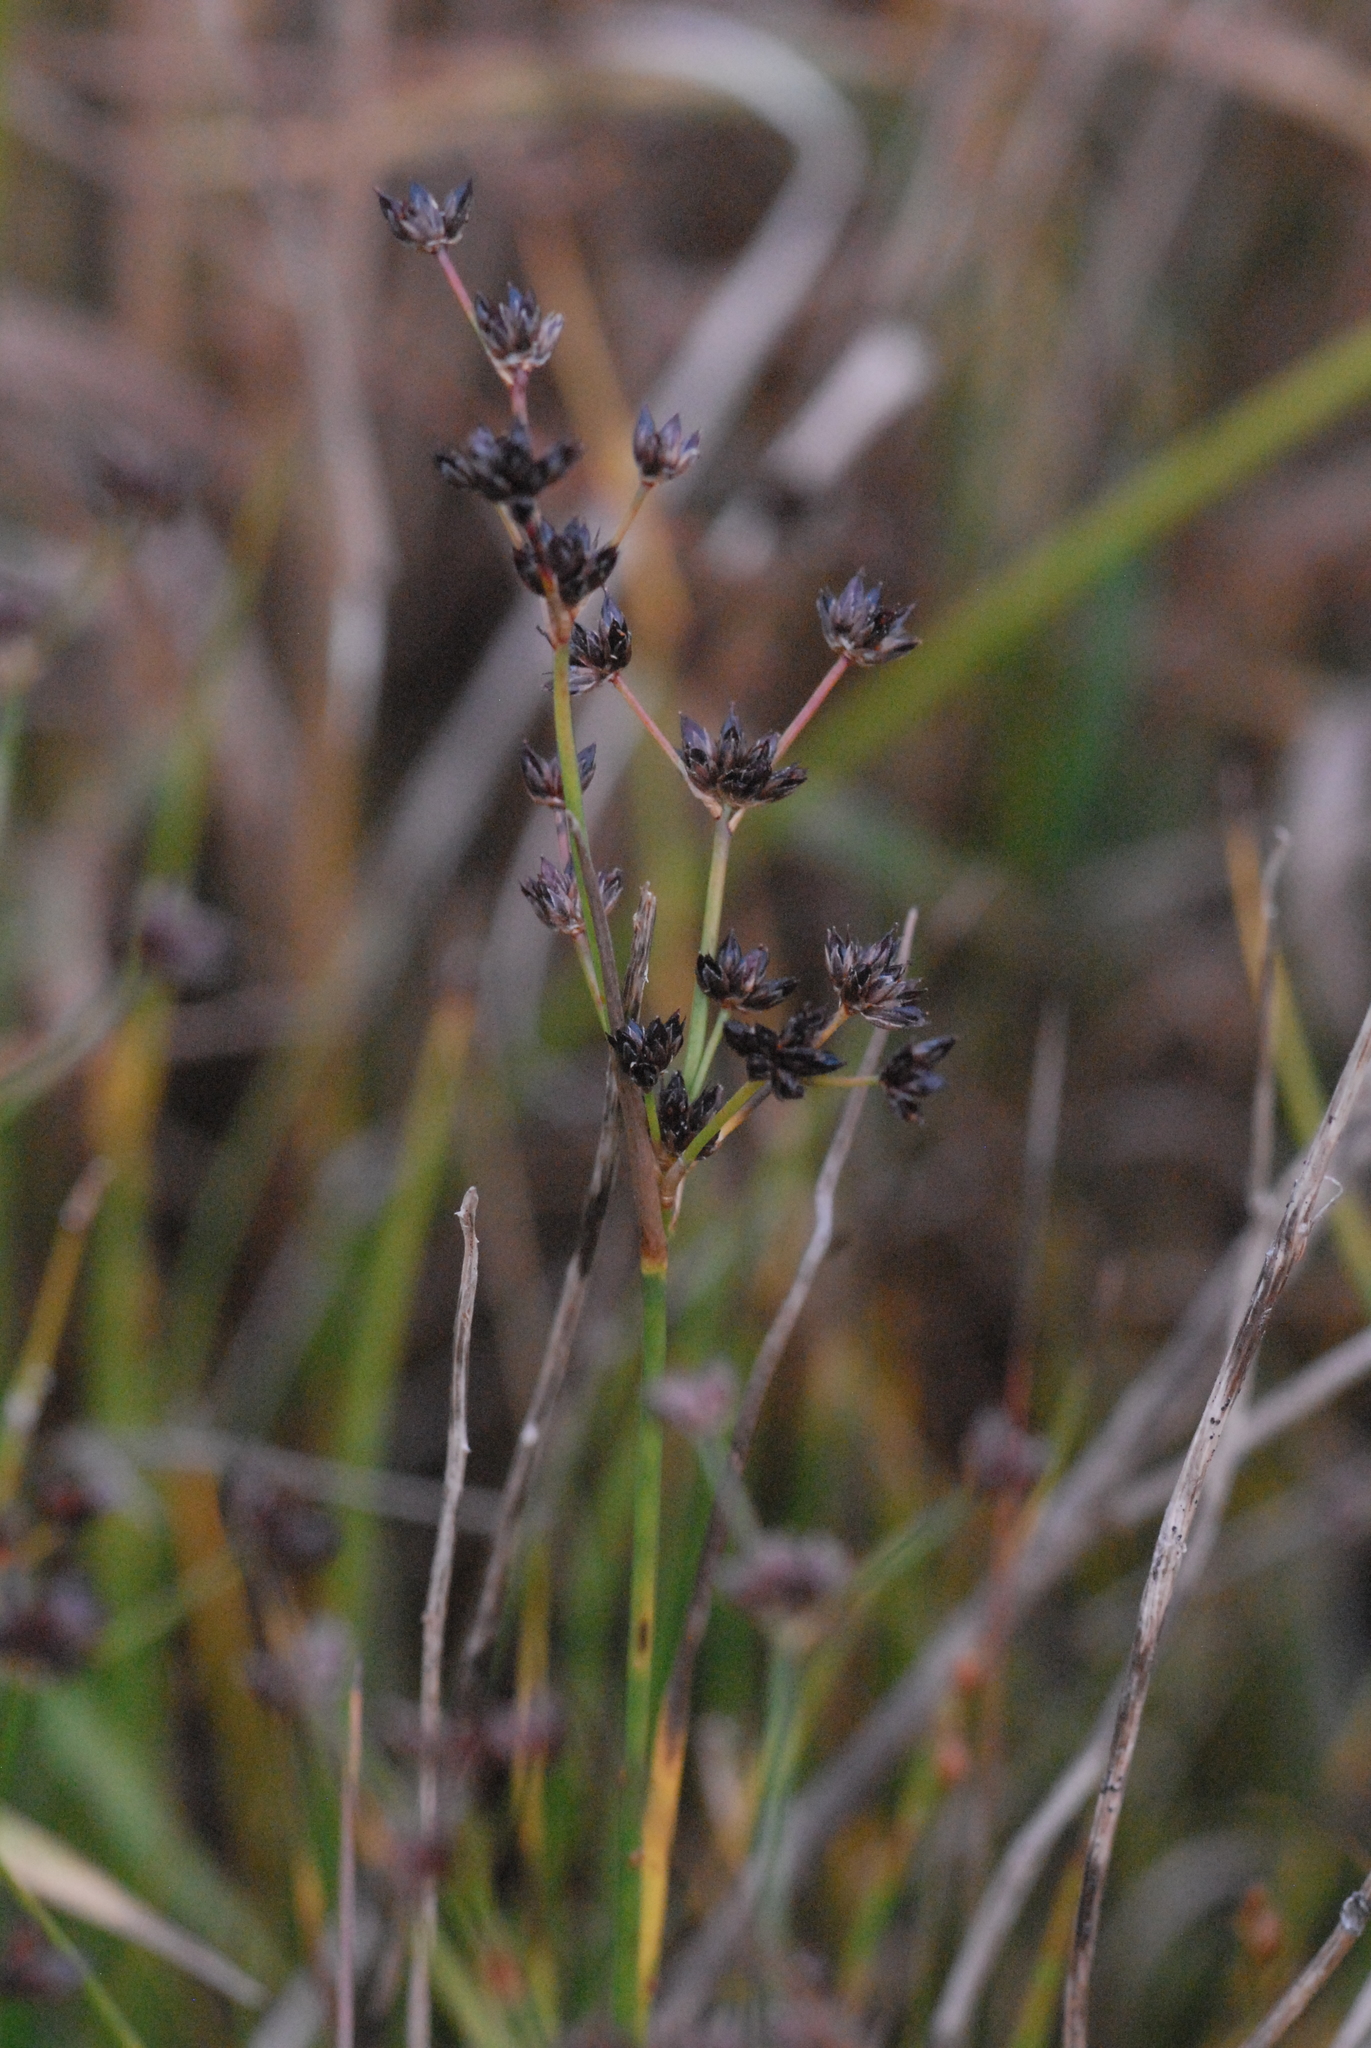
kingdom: Plantae
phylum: Tracheophyta
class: Liliopsida
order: Poales
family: Juncaceae
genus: Juncus
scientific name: Juncus alpinoarticulatus
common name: Alpine rush
